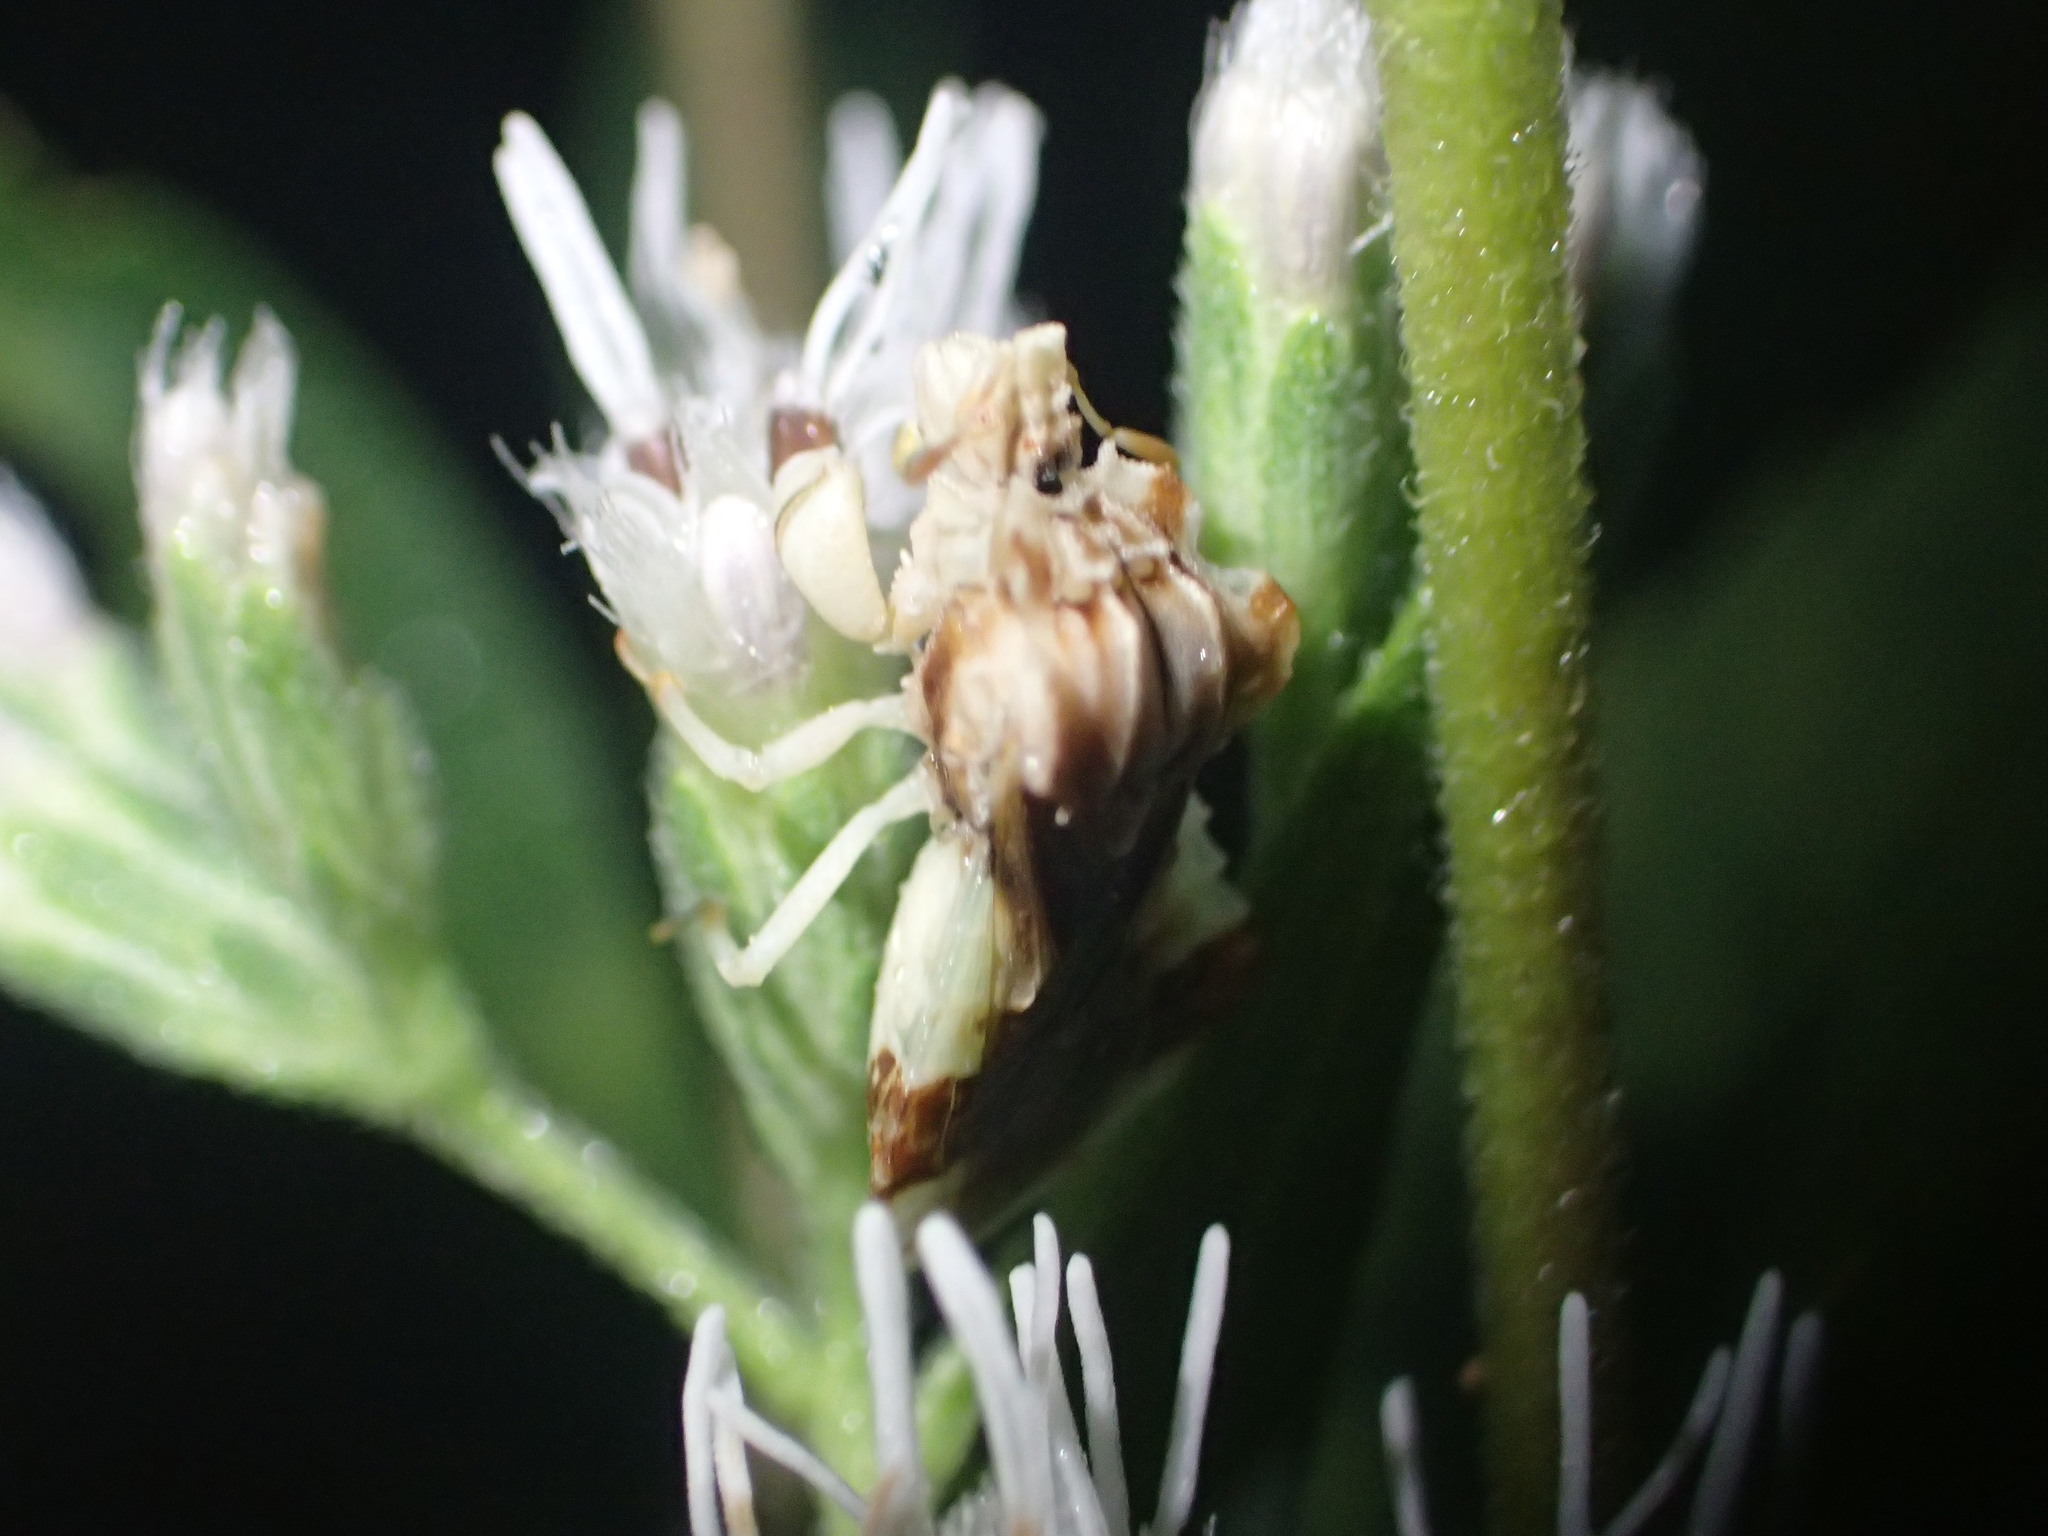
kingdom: Animalia
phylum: Arthropoda
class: Insecta
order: Hemiptera
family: Reduviidae
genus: Phymata
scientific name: Phymata fasciata
